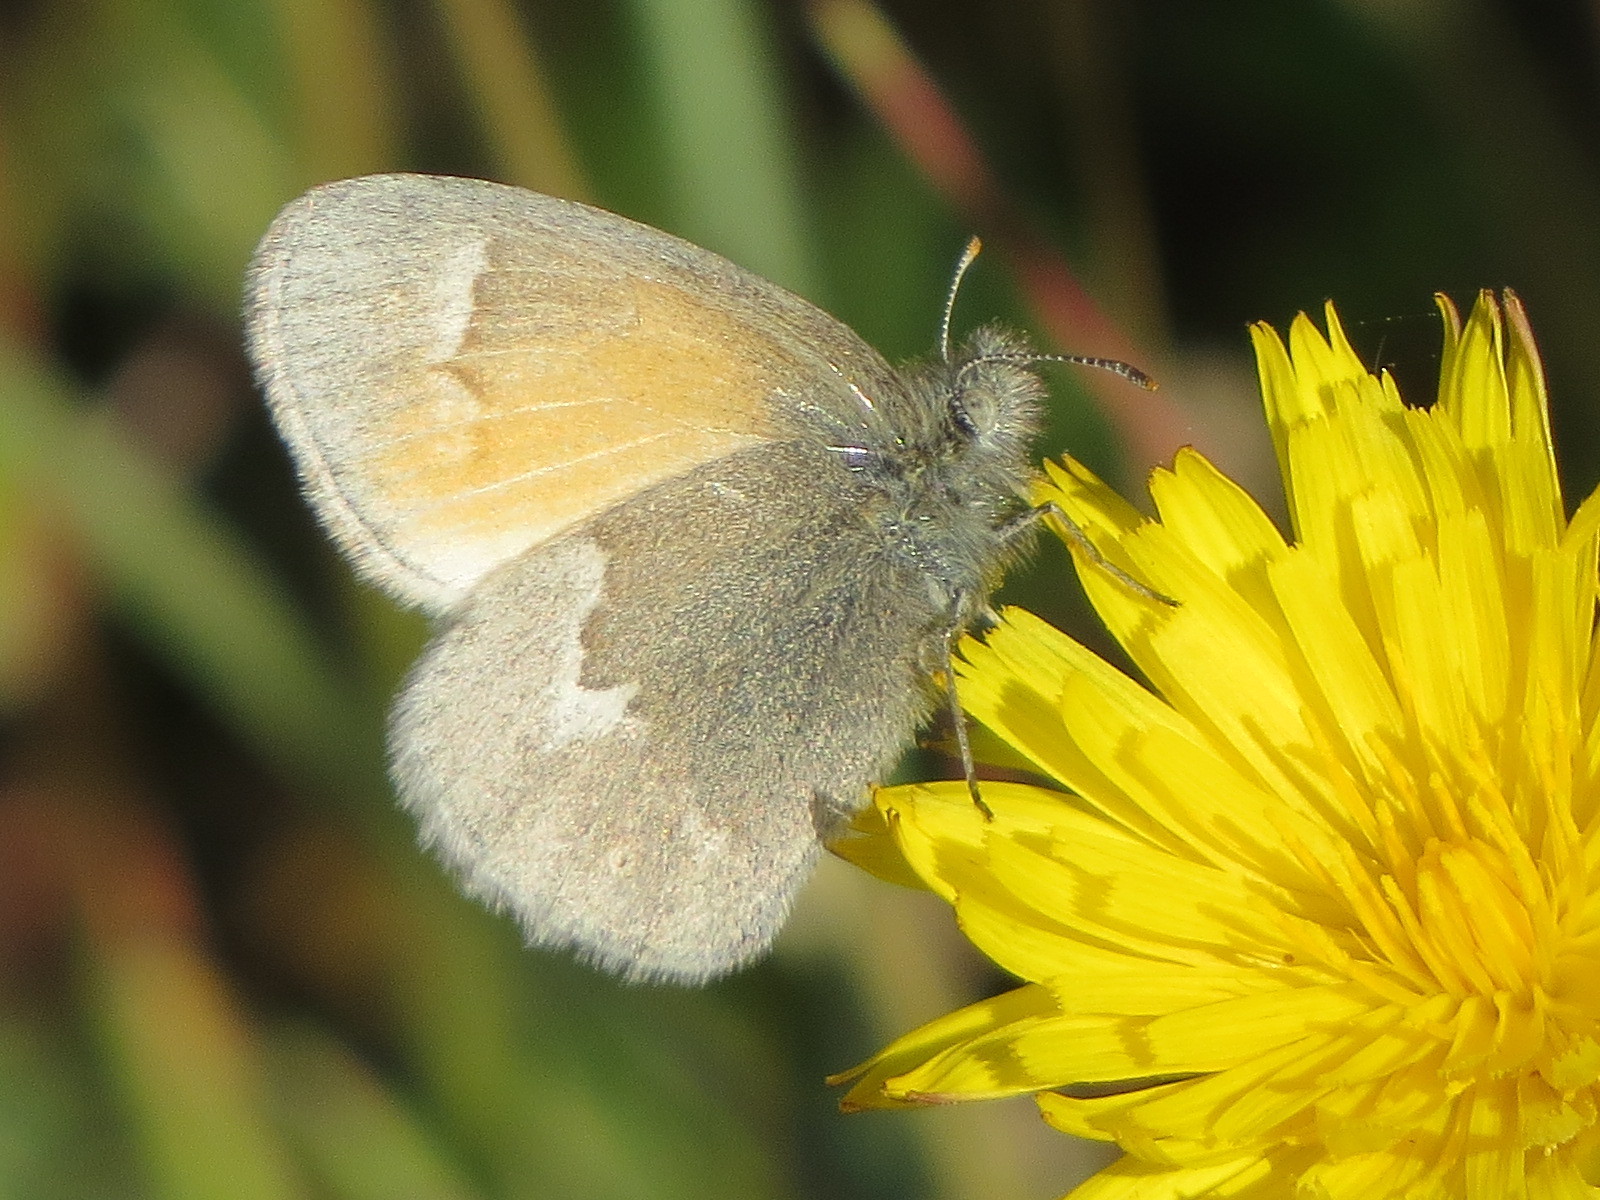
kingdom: Animalia
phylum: Arthropoda
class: Insecta
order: Lepidoptera
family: Nymphalidae
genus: Coenonympha
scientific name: Coenonympha california
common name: Common ringlet
